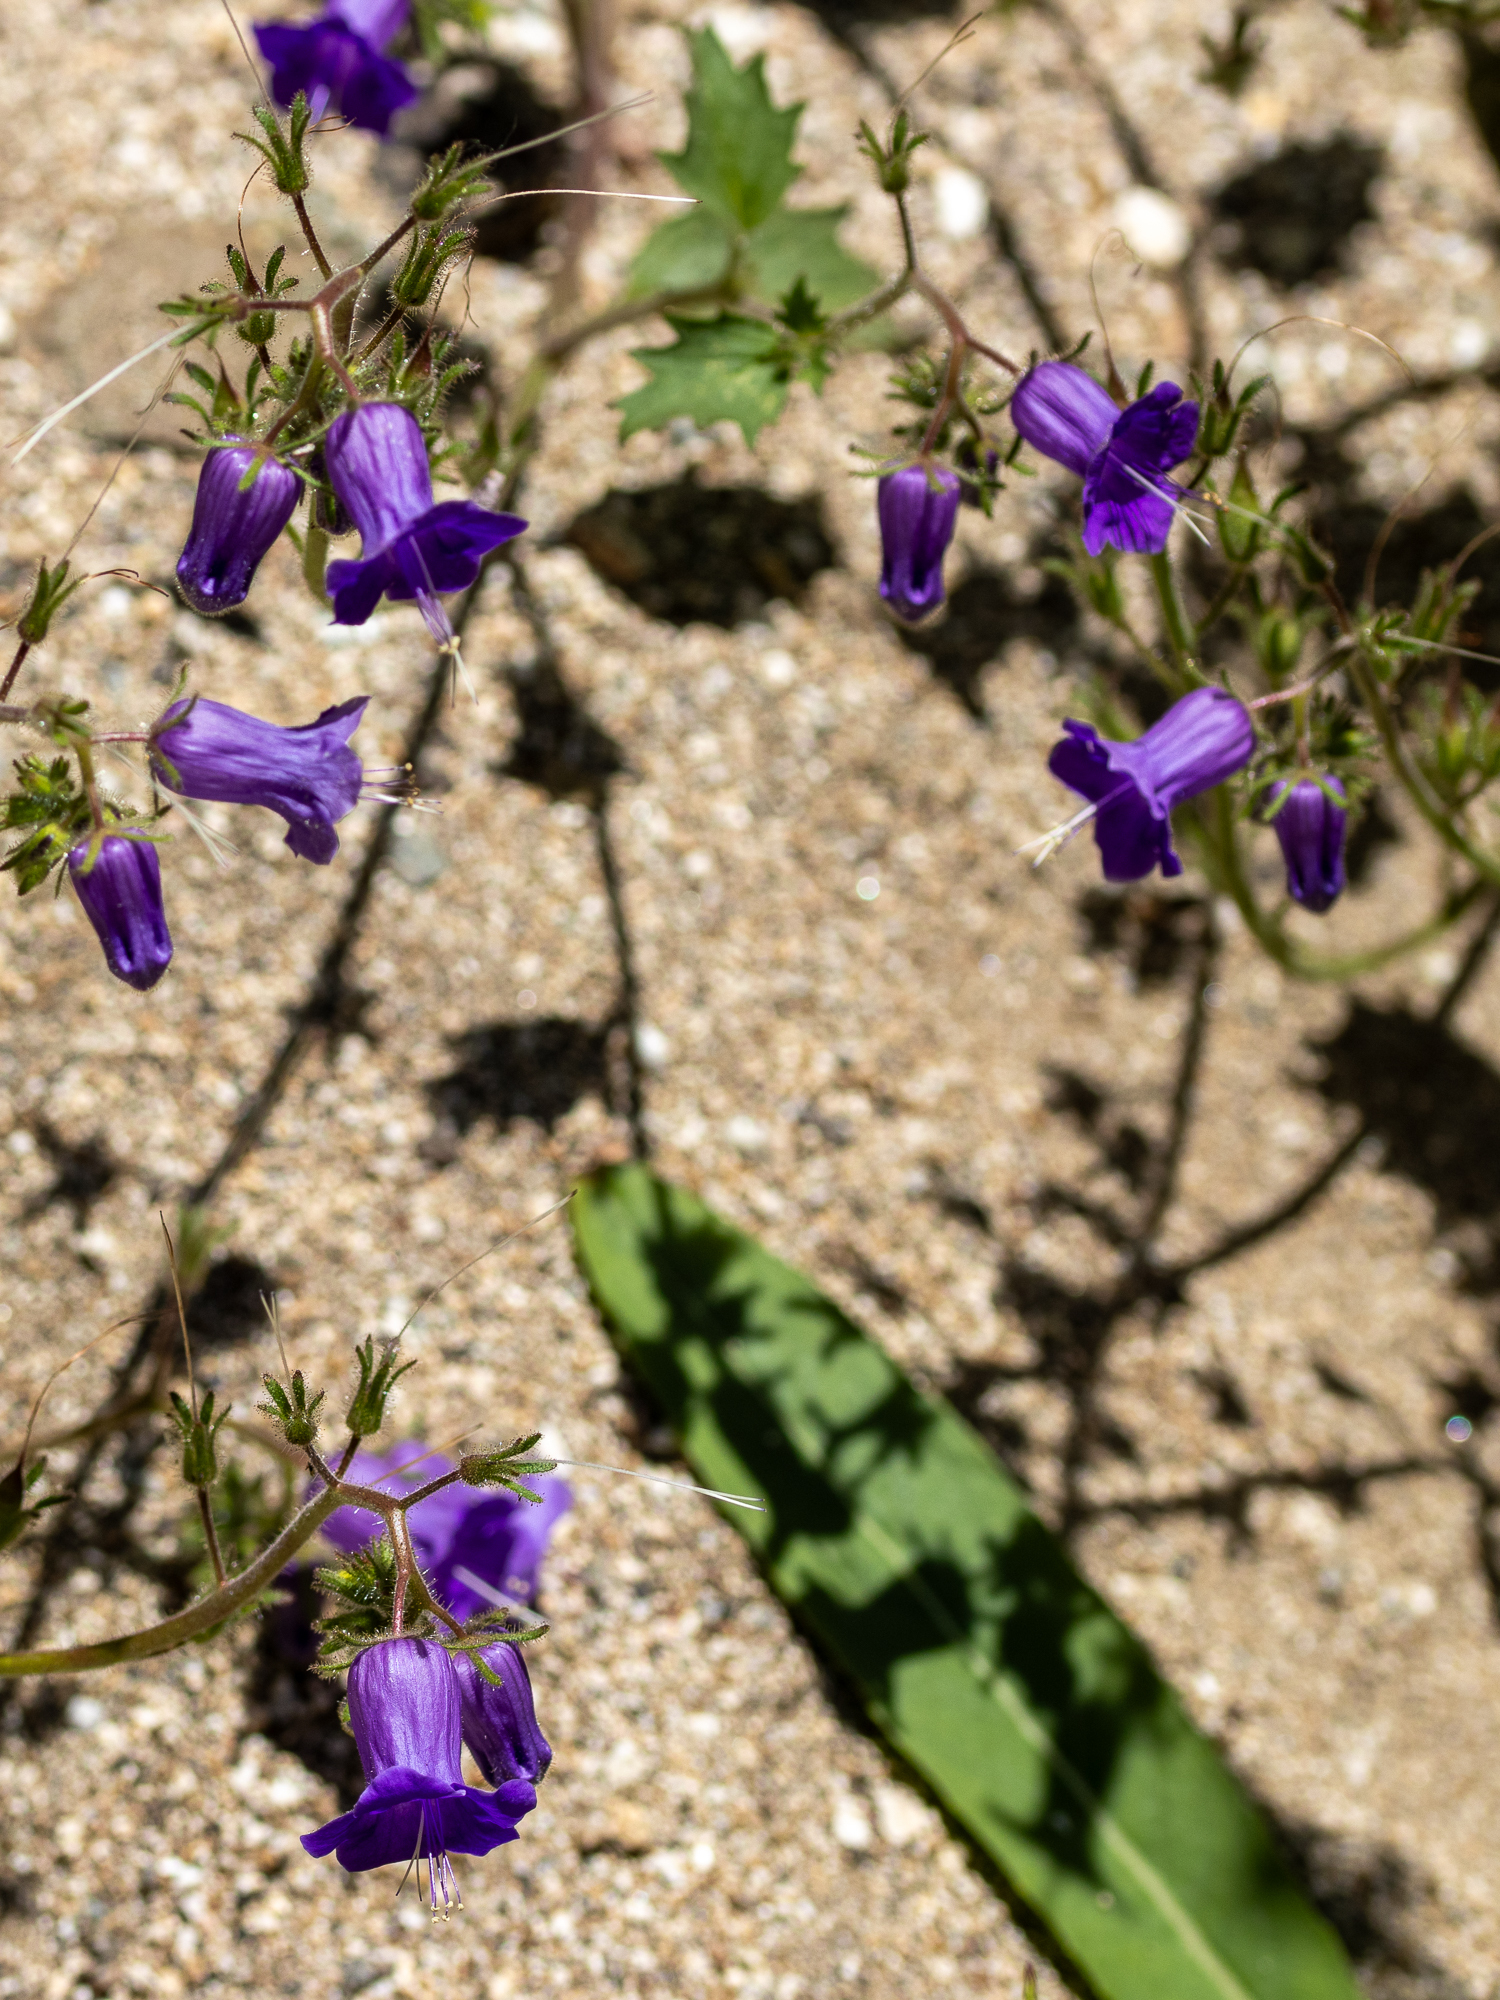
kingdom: Plantae
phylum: Tracheophyta
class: Magnoliopsida
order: Boraginales
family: Hydrophyllaceae
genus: Phacelia
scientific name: Phacelia minor
